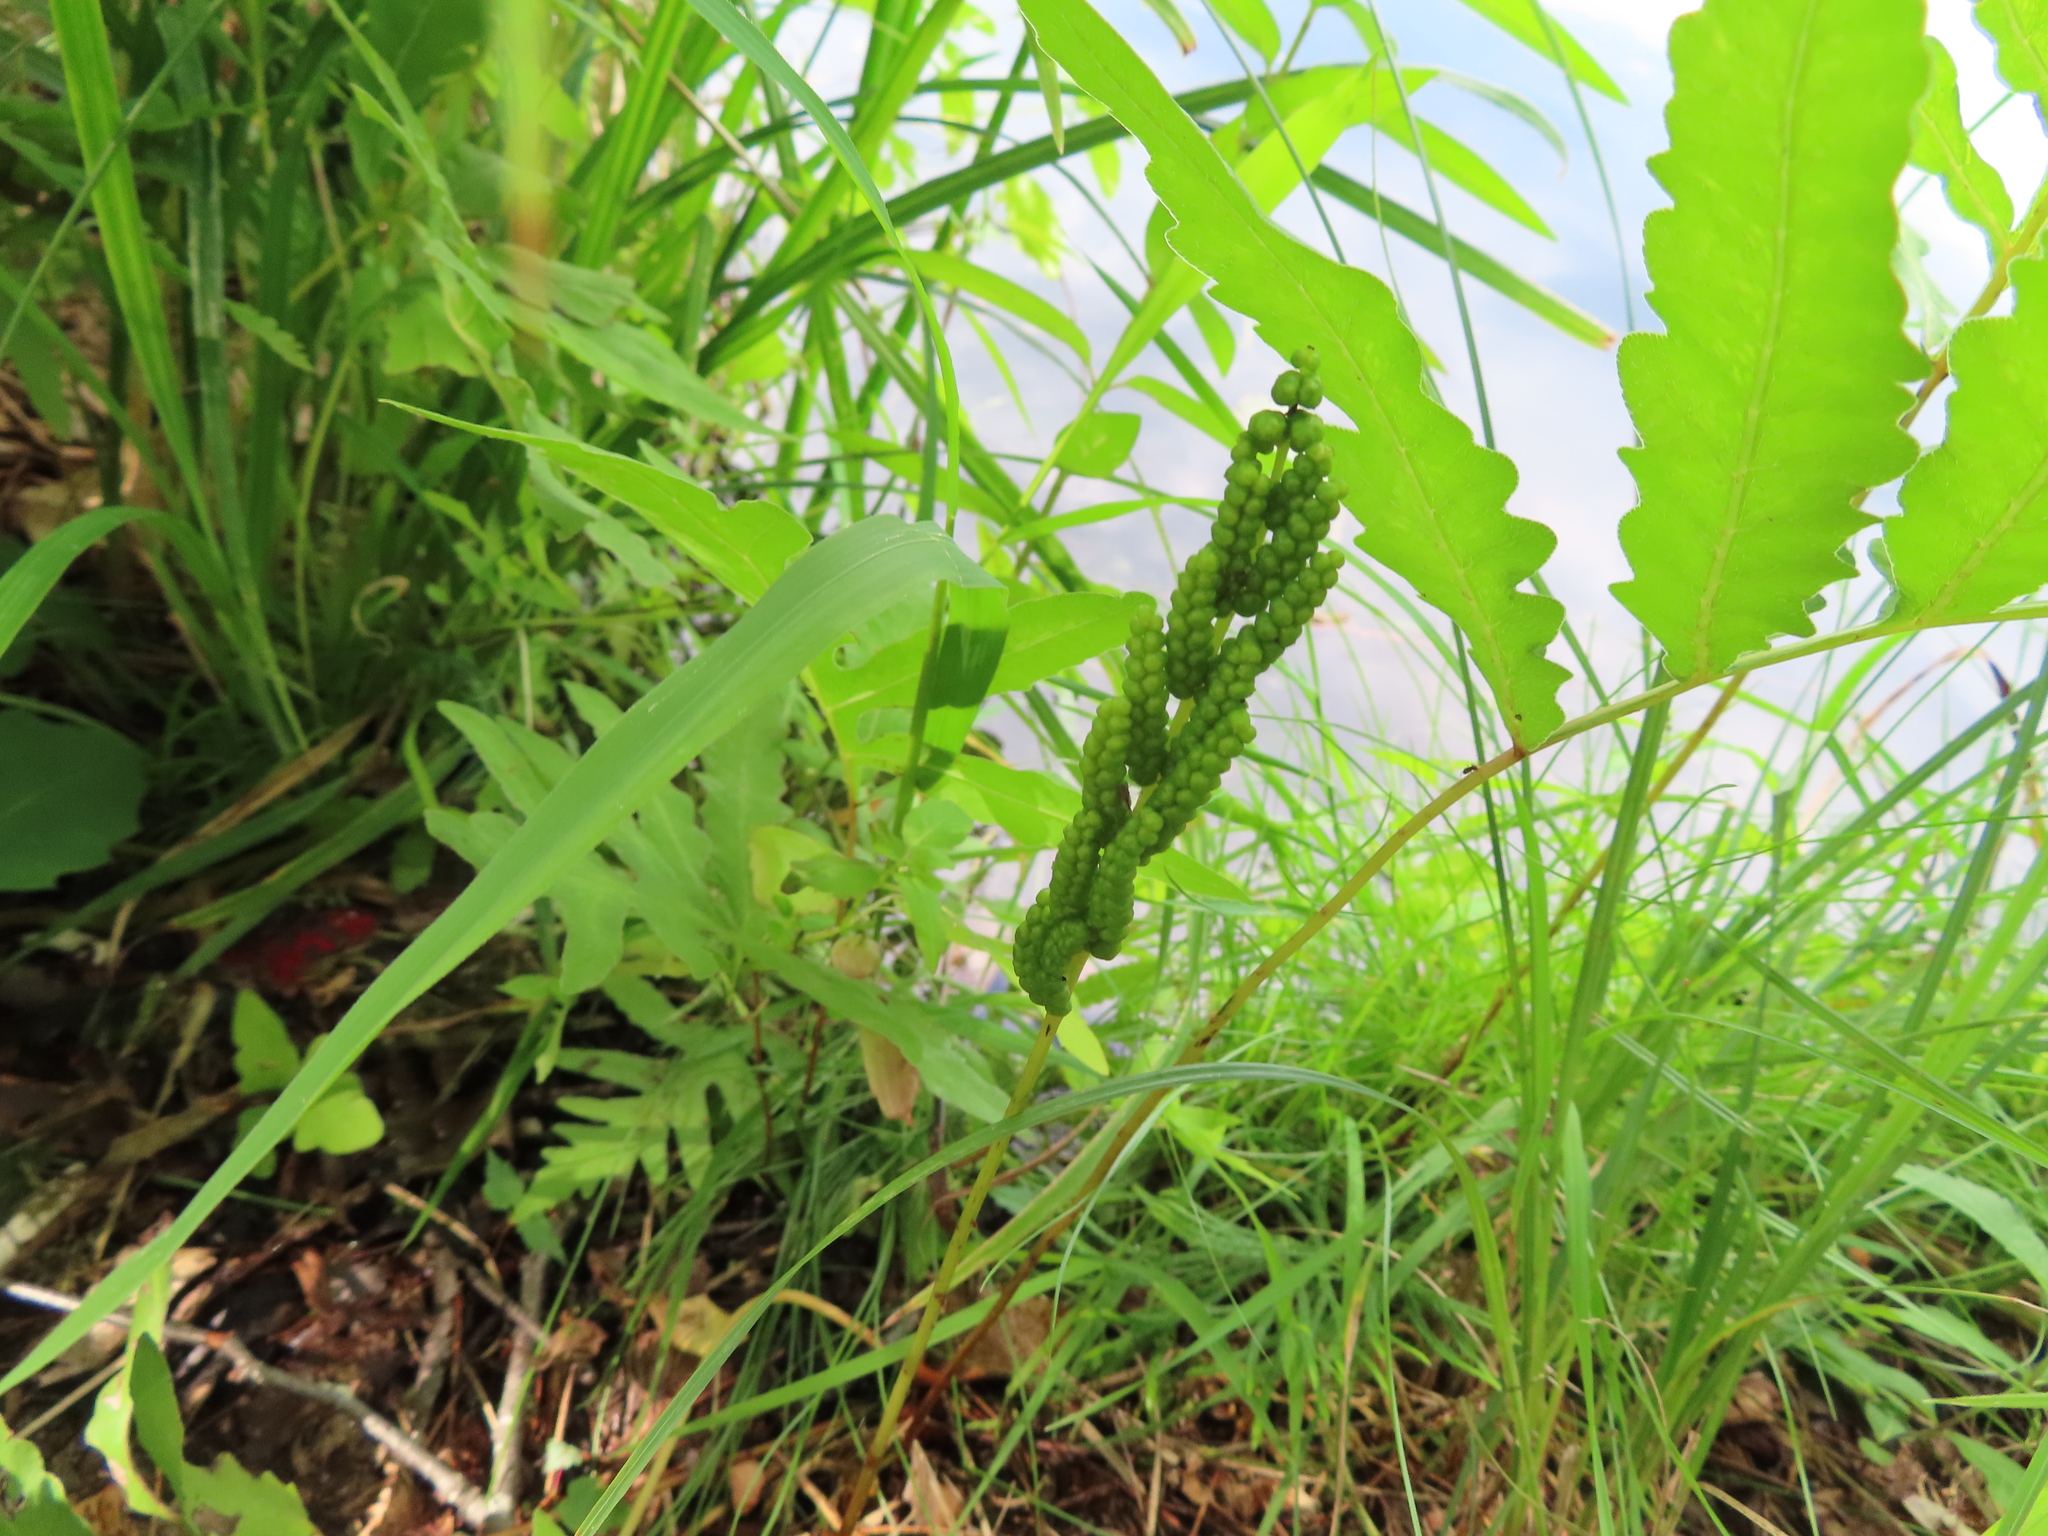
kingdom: Plantae
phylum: Tracheophyta
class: Polypodiopsida
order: Polypodiales
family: Onocleaceae
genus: Onoclea
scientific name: Onoclea sensibilis
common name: Sensitive fern
